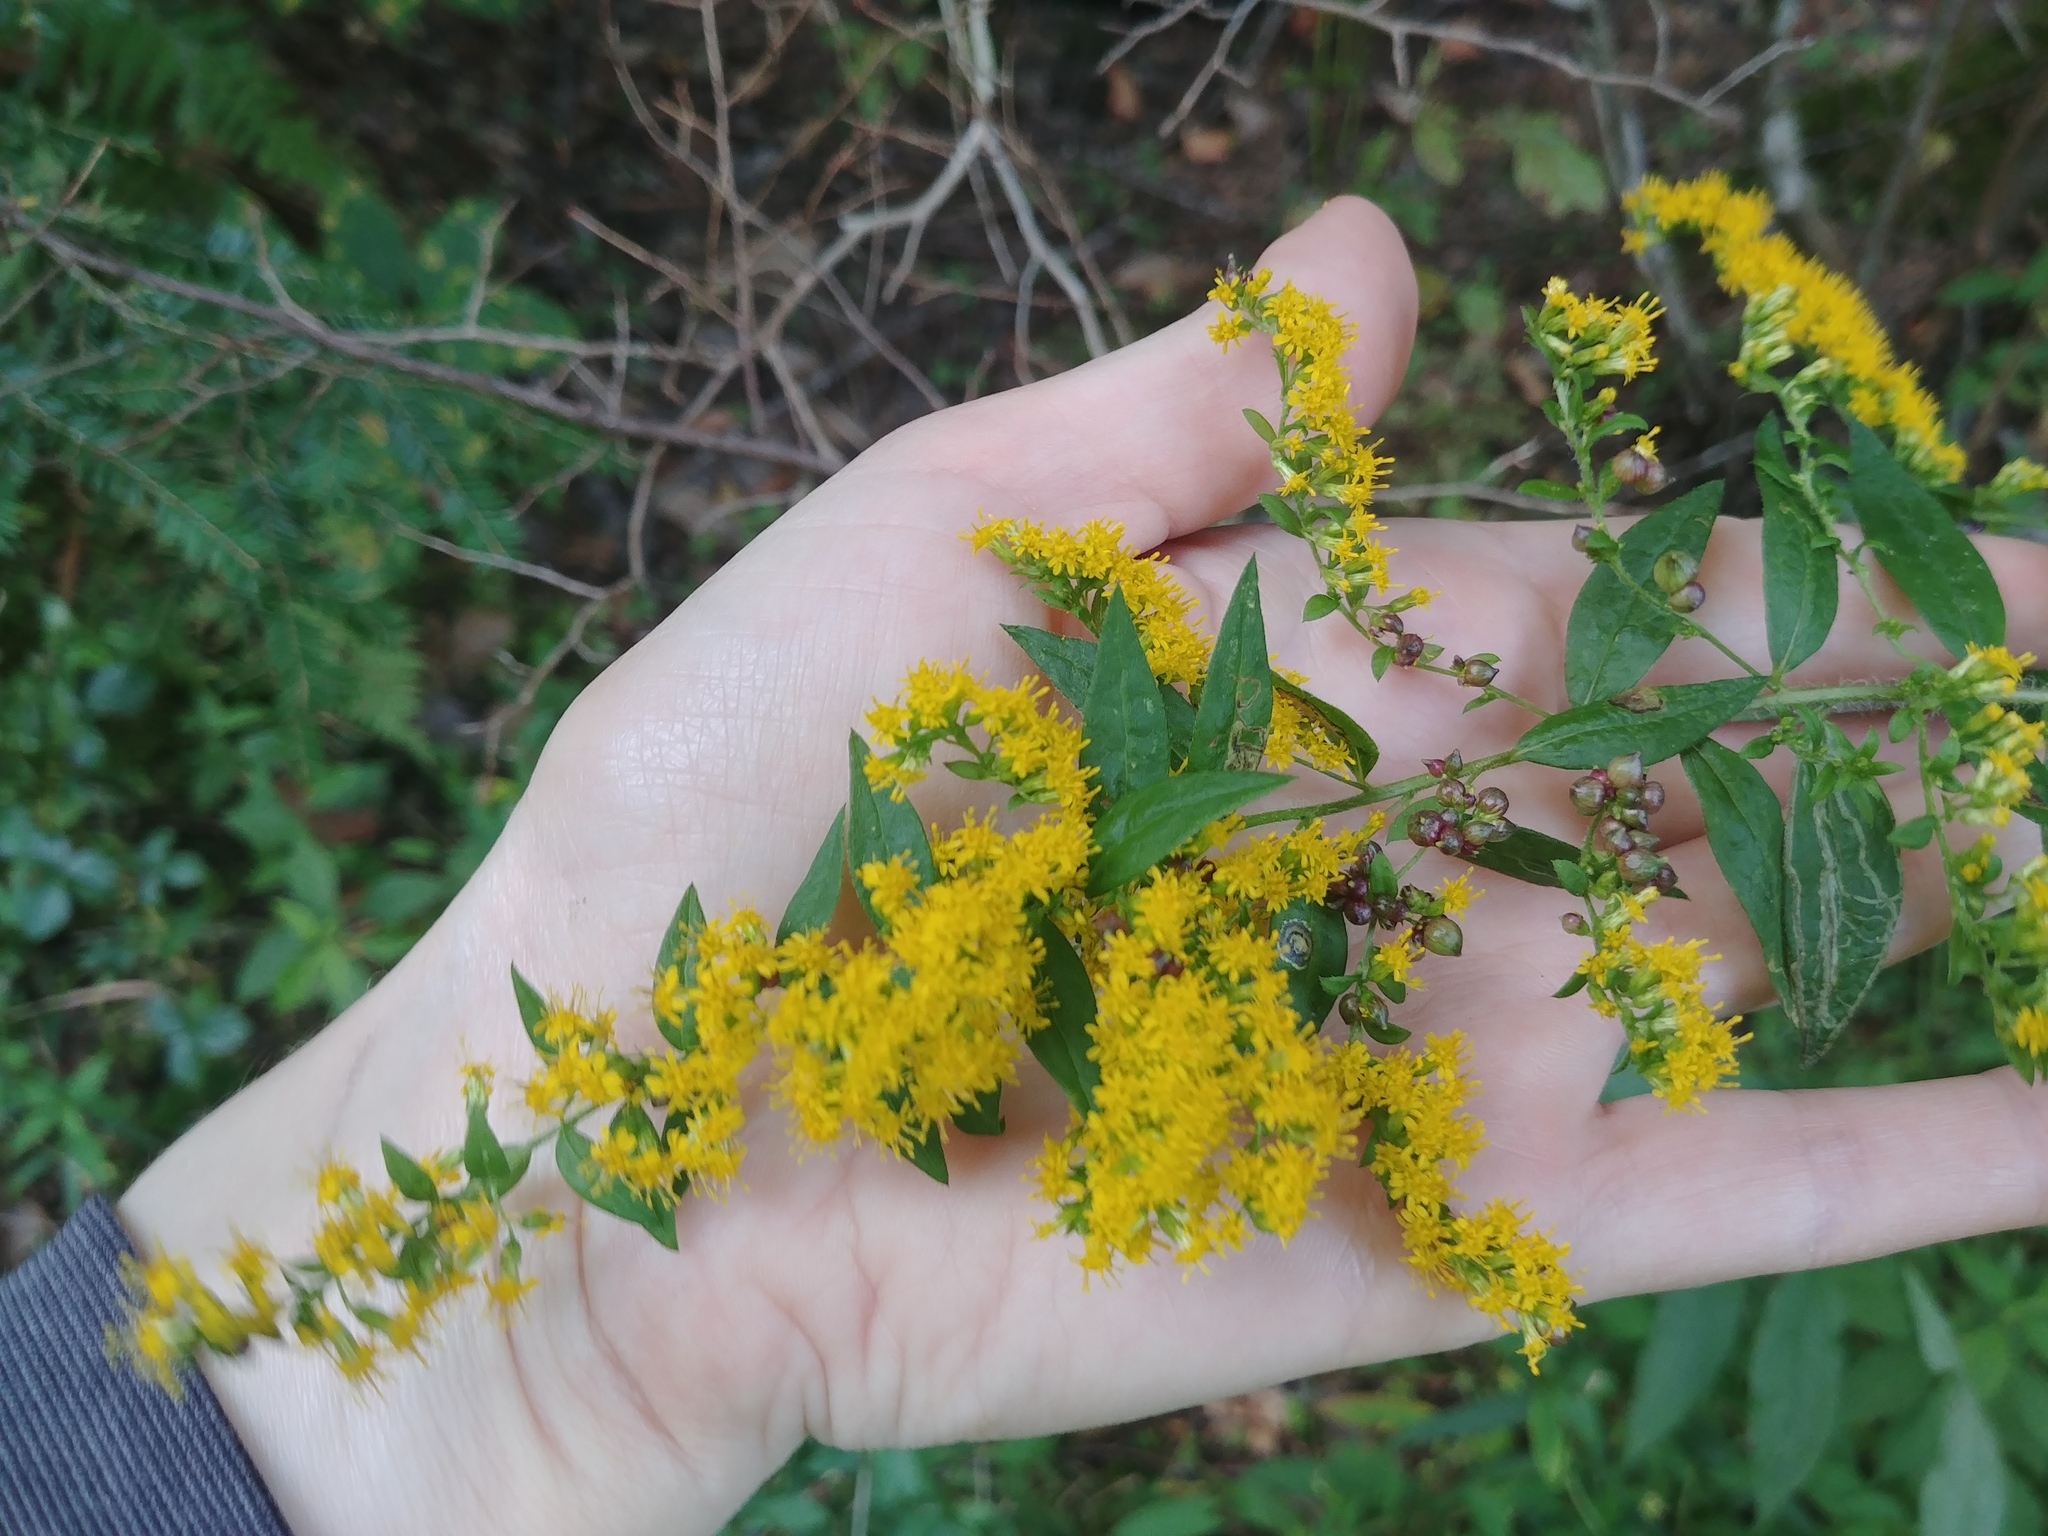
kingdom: Plantae
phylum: Tracheophyta
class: Magnoliopsida
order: Asterales
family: Asteraceae
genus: Solidago
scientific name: Solidago rugosa
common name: Rough-stemmed goldenrod
